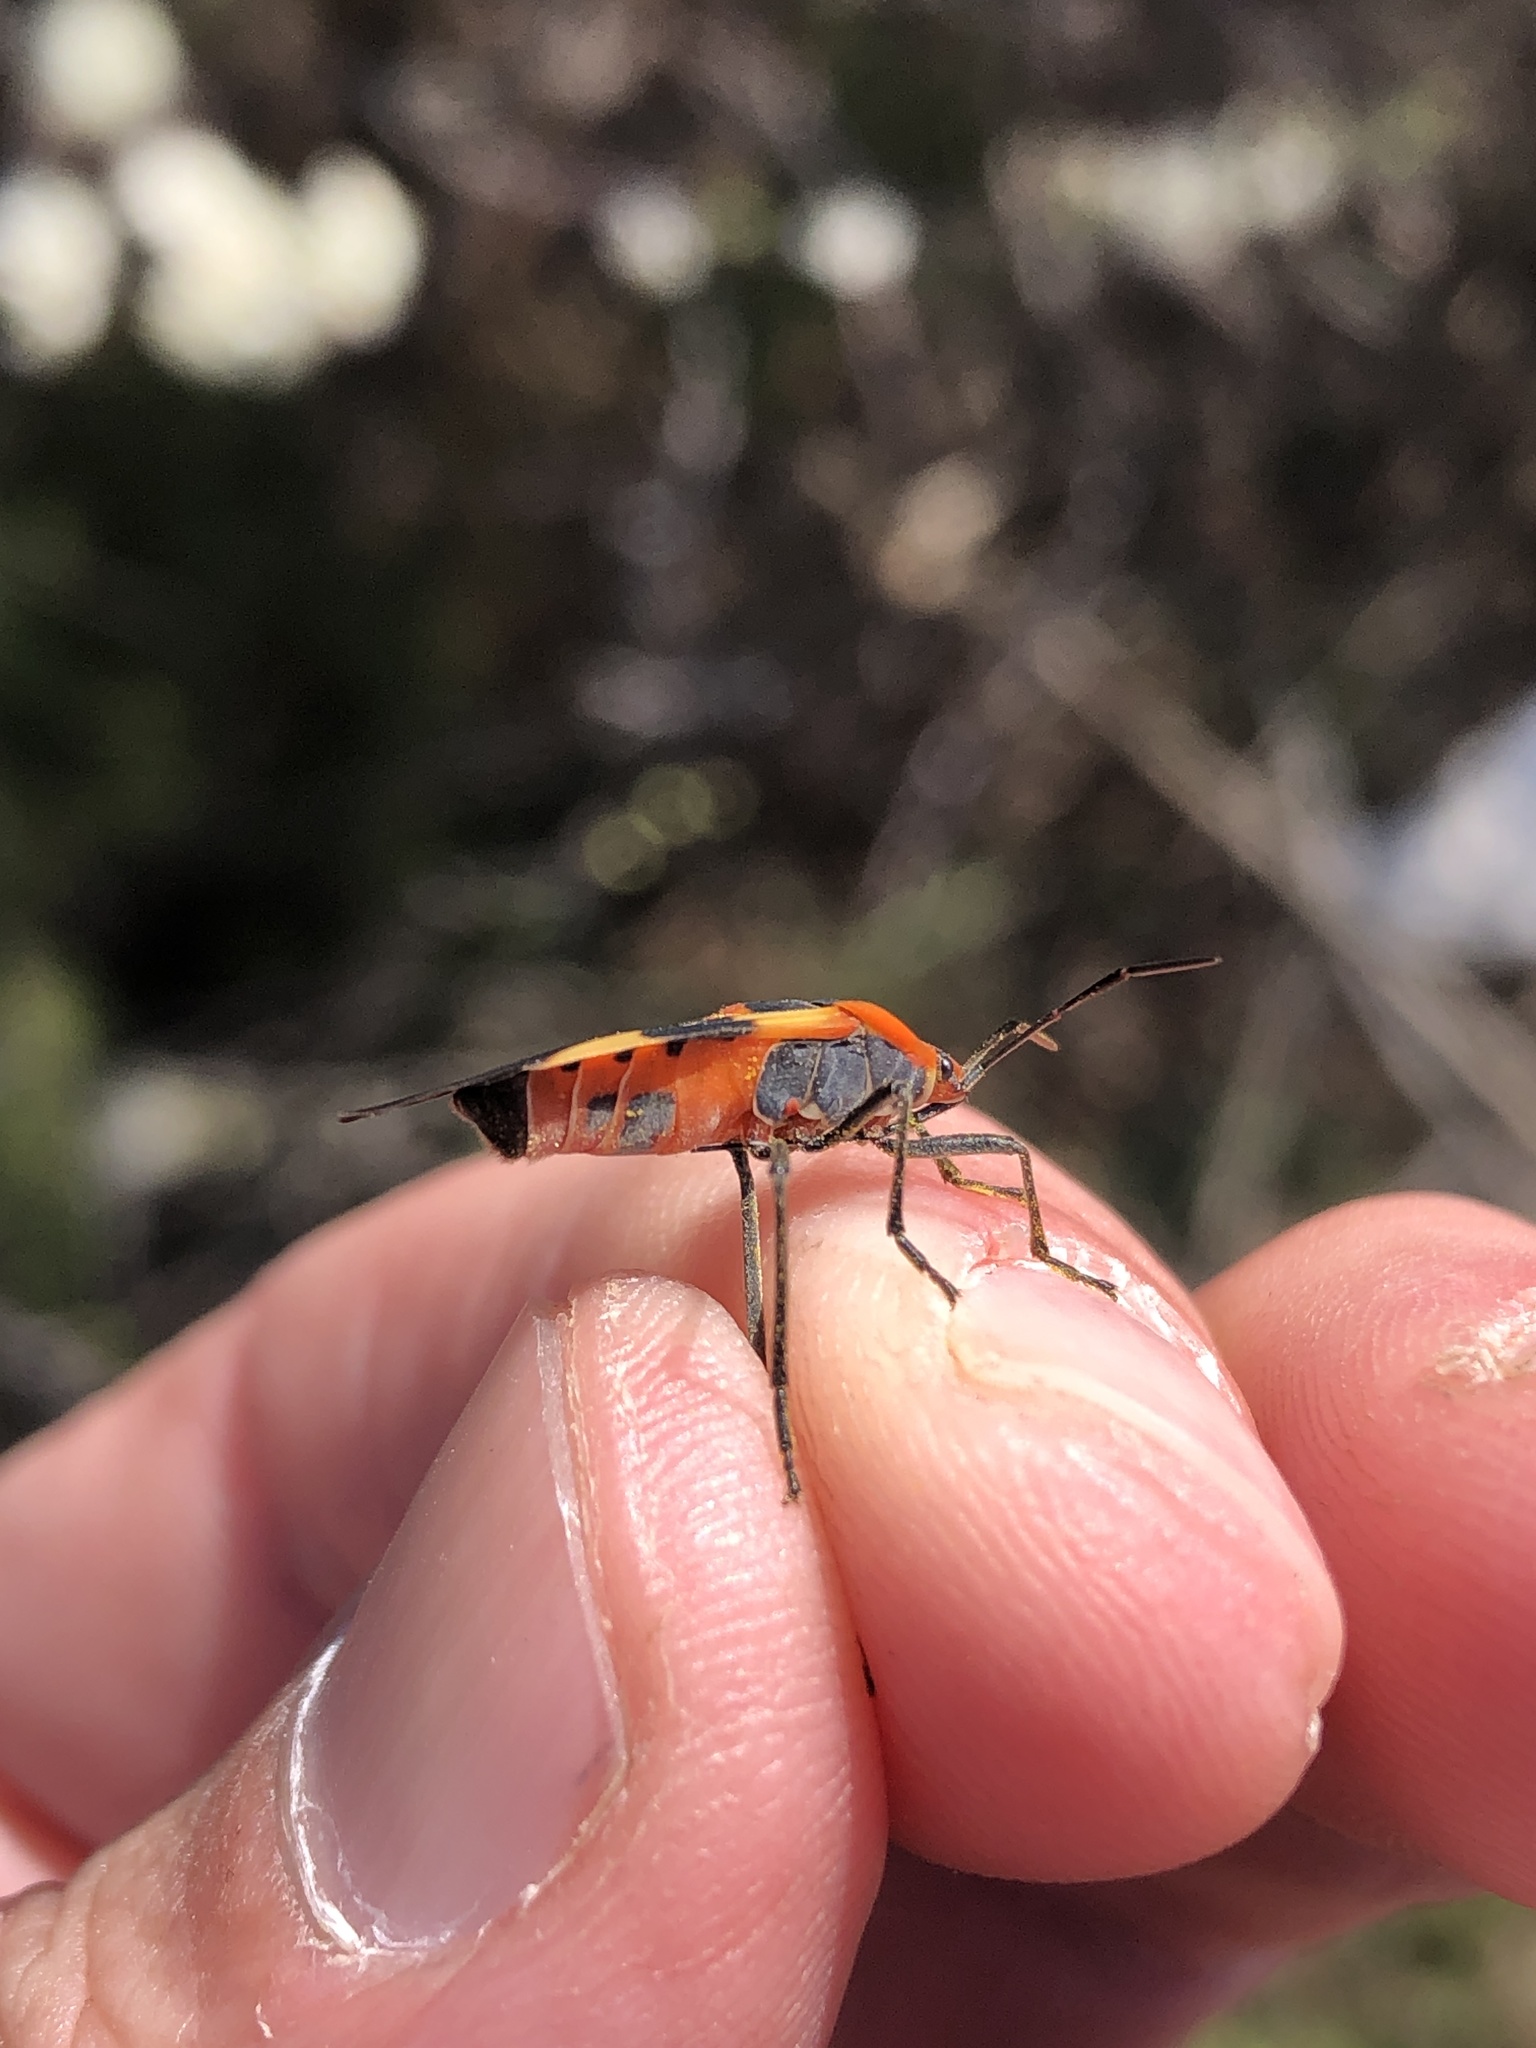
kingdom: Animalia
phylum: Arthropoda
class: Insecta
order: Hemiptera
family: Lygaeidae
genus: Oncopeltus
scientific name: Oncopeltus fasciatus
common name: Large milkweed bug
